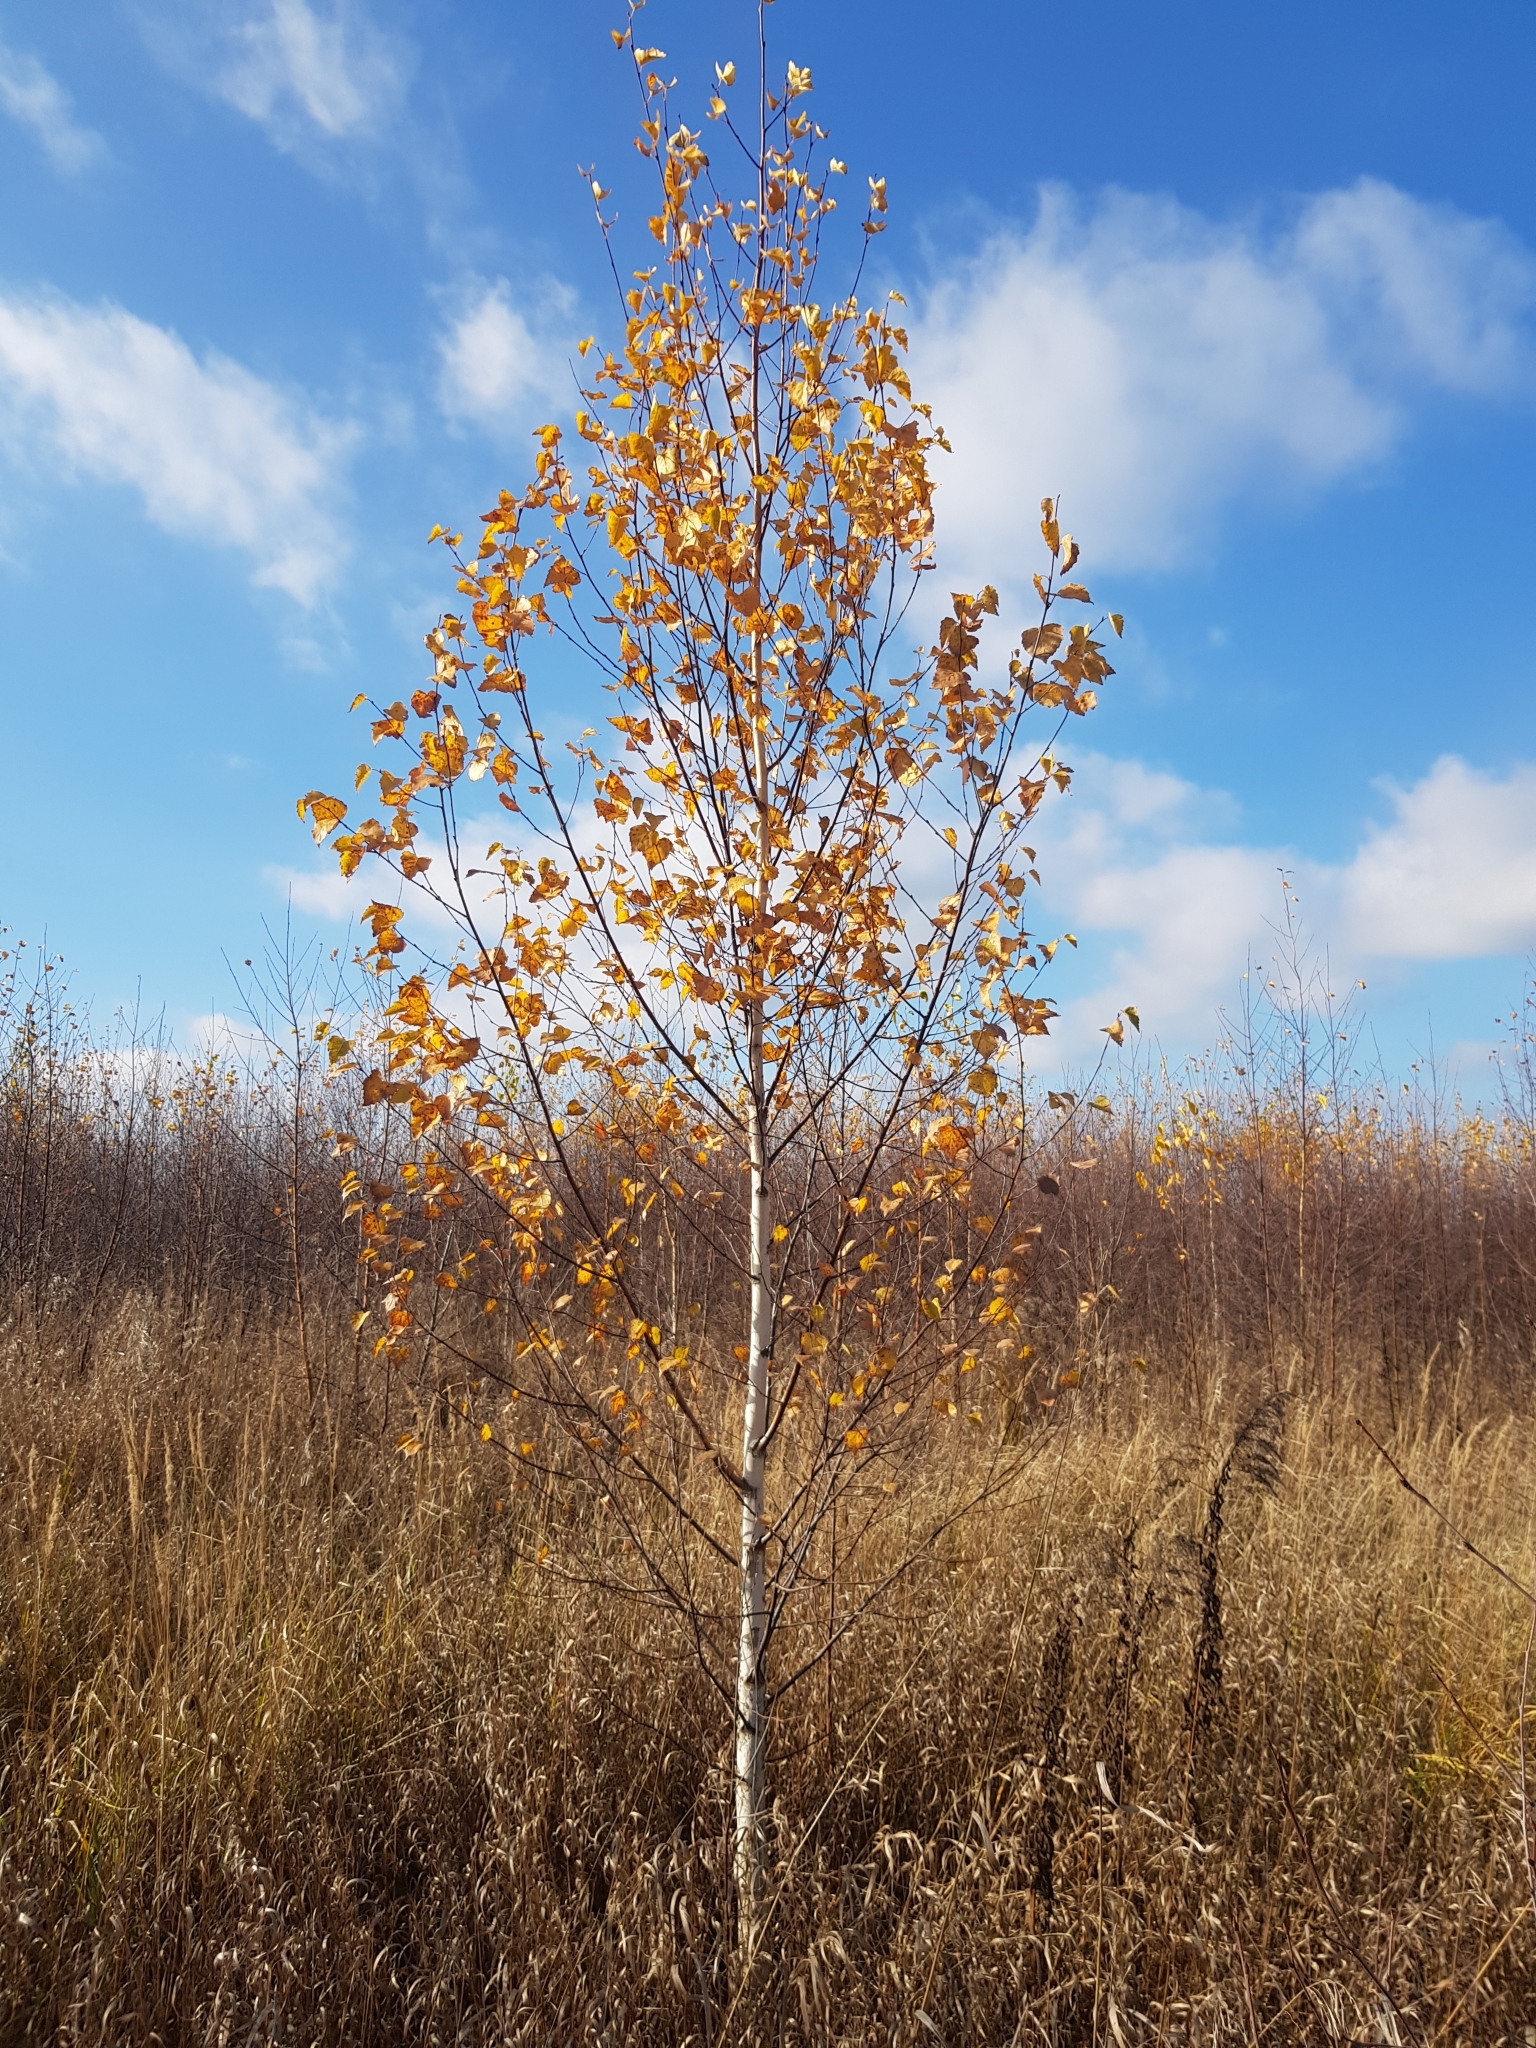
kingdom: Plantae
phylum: Tracheophyta
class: Magnoliopsida
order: Fagales
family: Betulaceae
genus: Betula
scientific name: Betula pendula
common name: Silver birch
